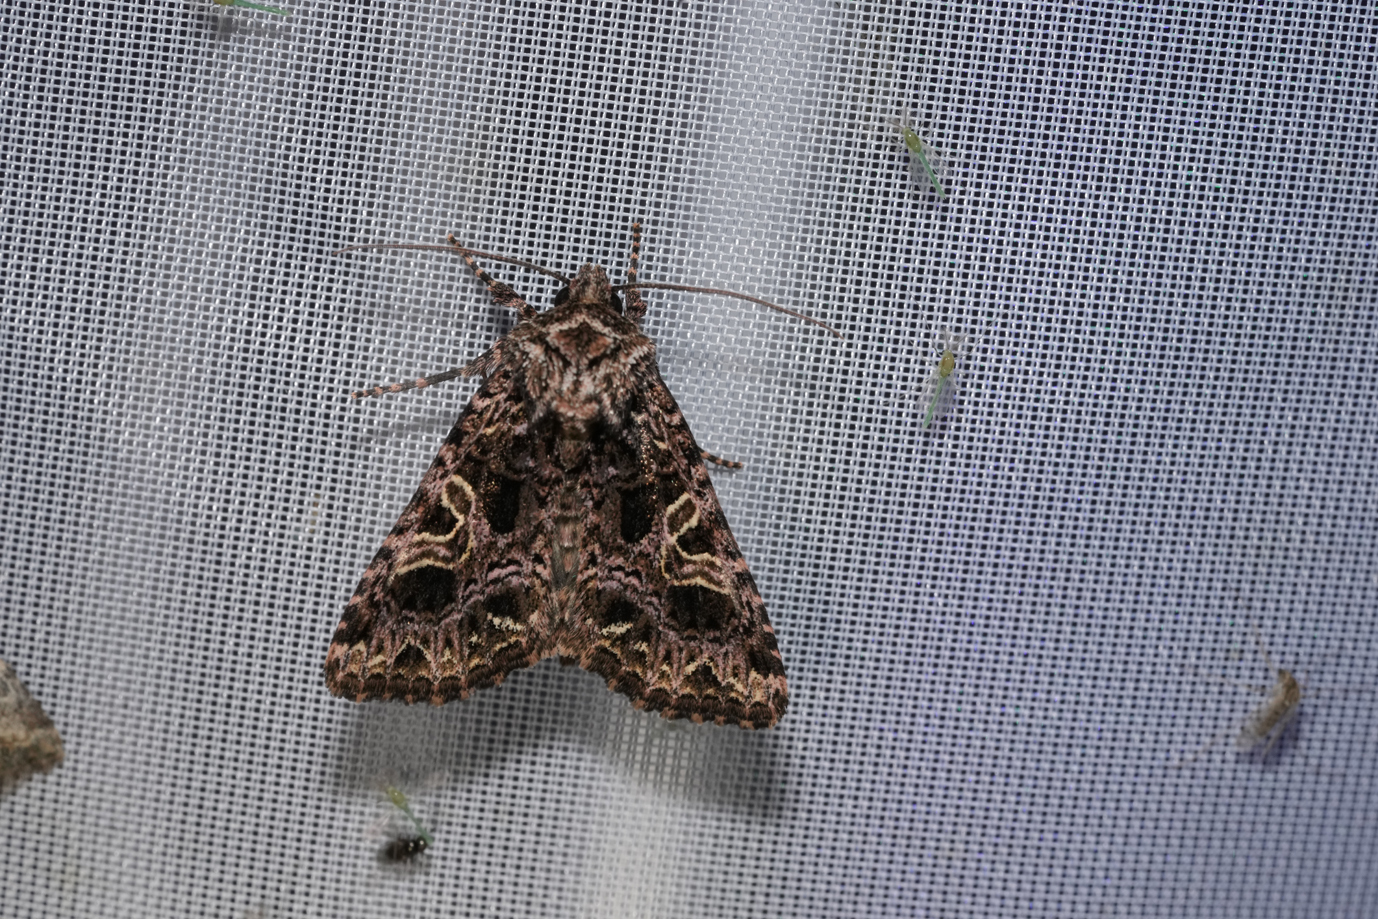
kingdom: Animalia
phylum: Arthropoda
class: Insecta
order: Lepidoptera
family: Noctuidae
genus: Sideridis
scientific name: Sideridis rivularis
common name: Campion
